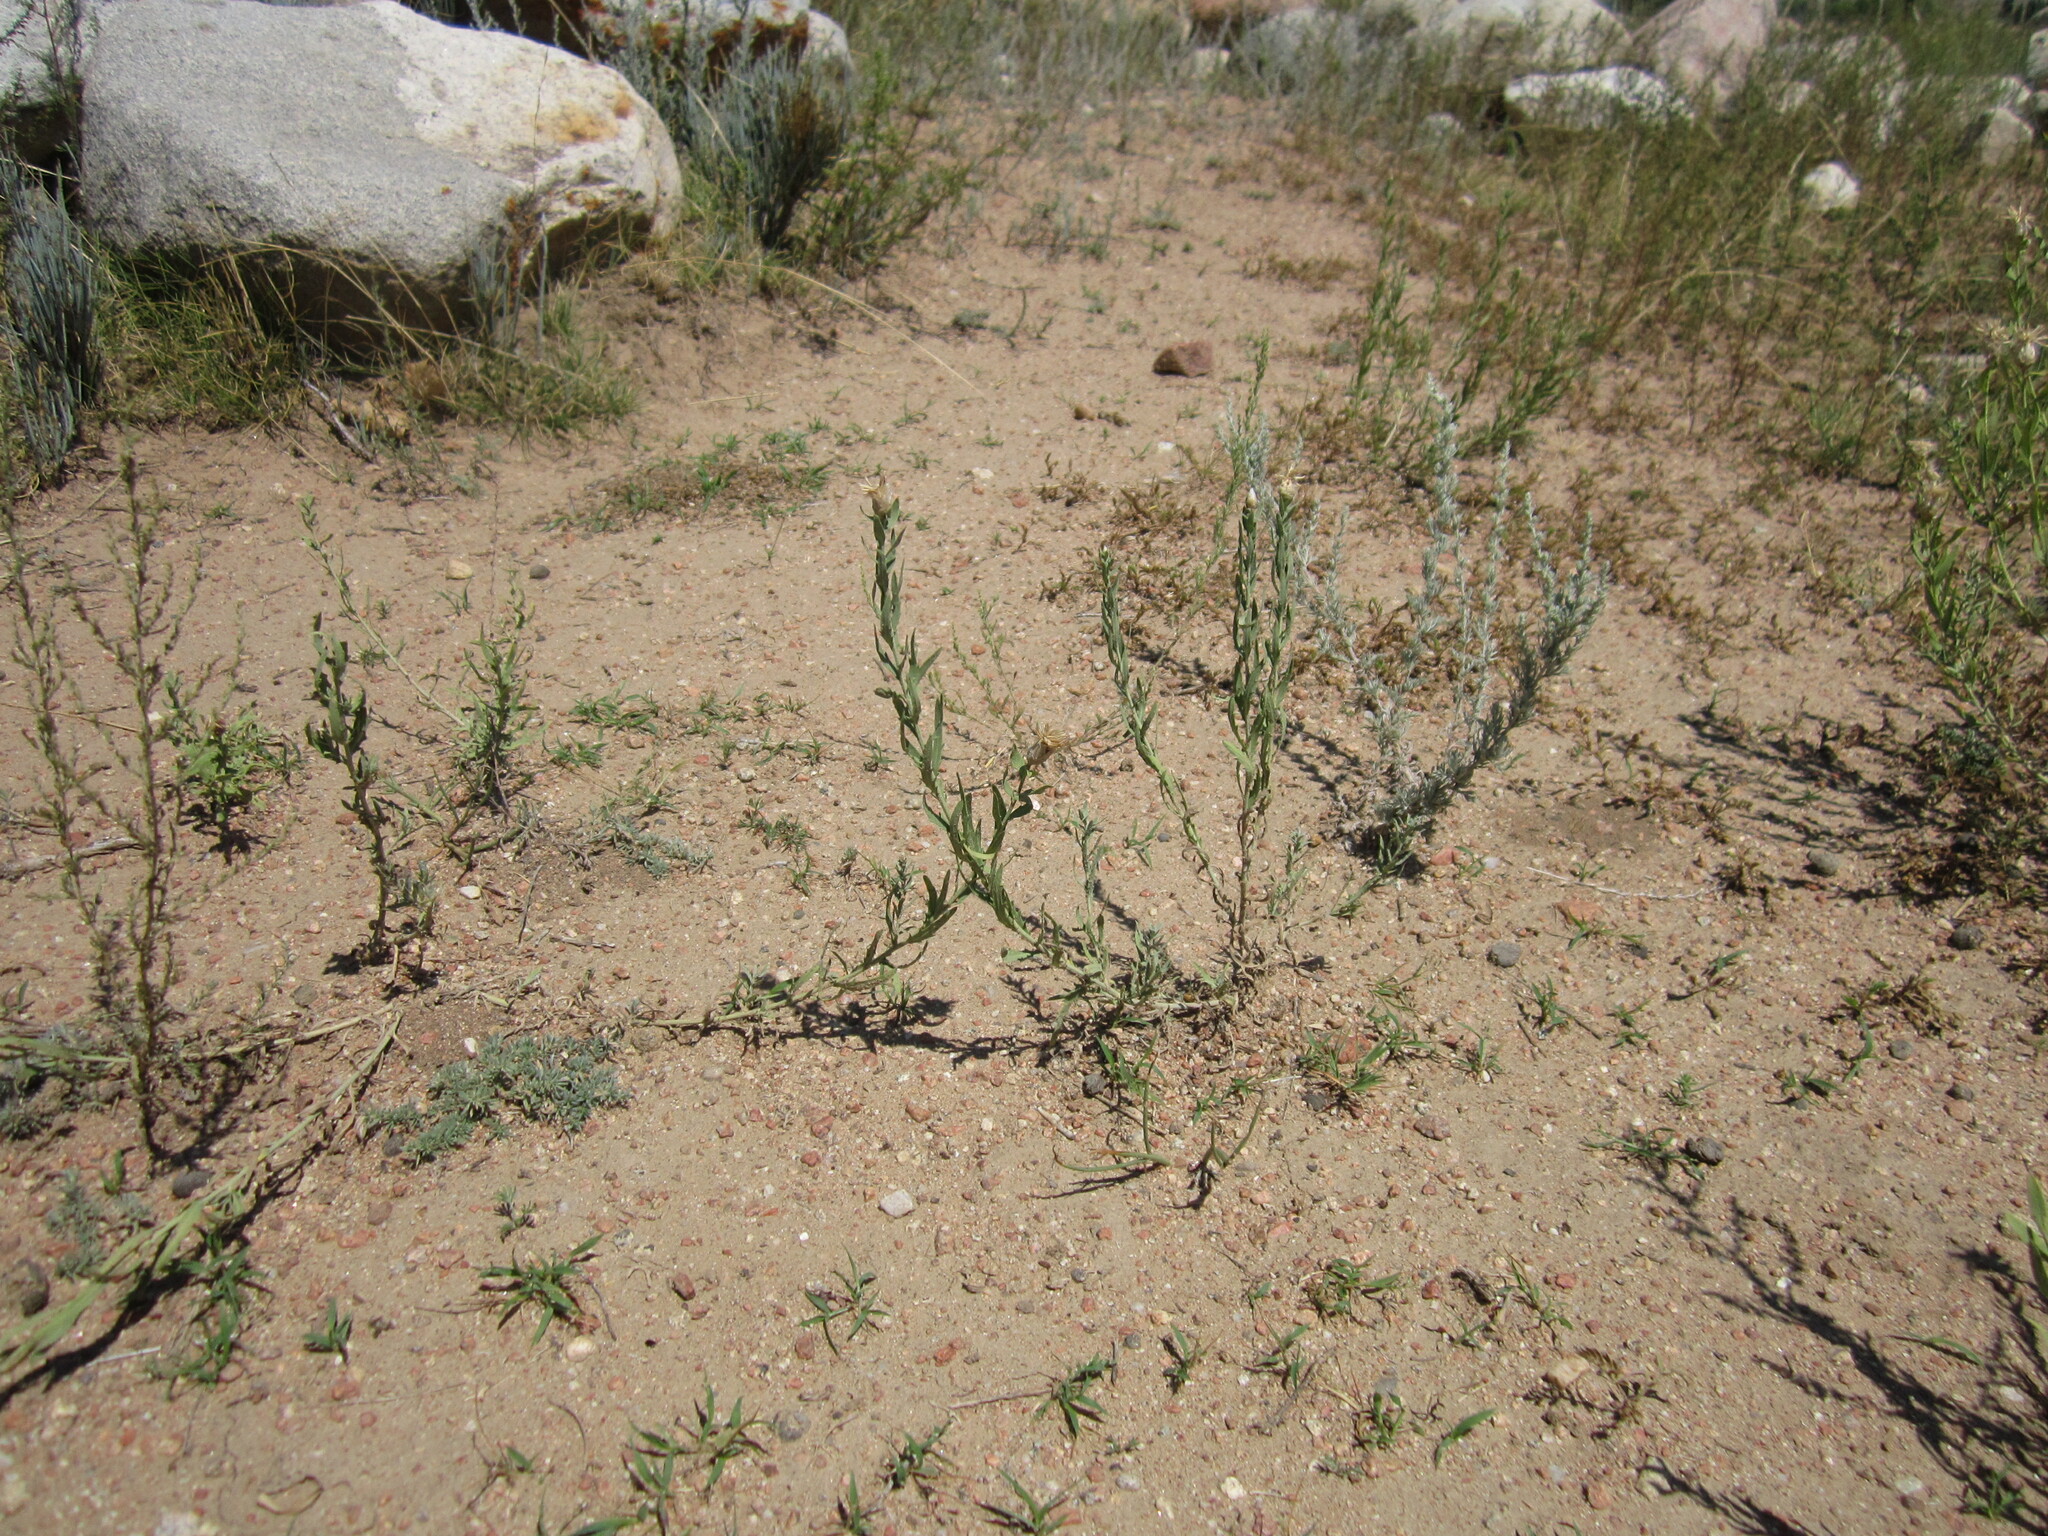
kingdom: Plantae
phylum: Tracheophyta
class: Magnoliopsida
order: Asterales
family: Asteraceae
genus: Leuzea
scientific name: Leuzea repens
